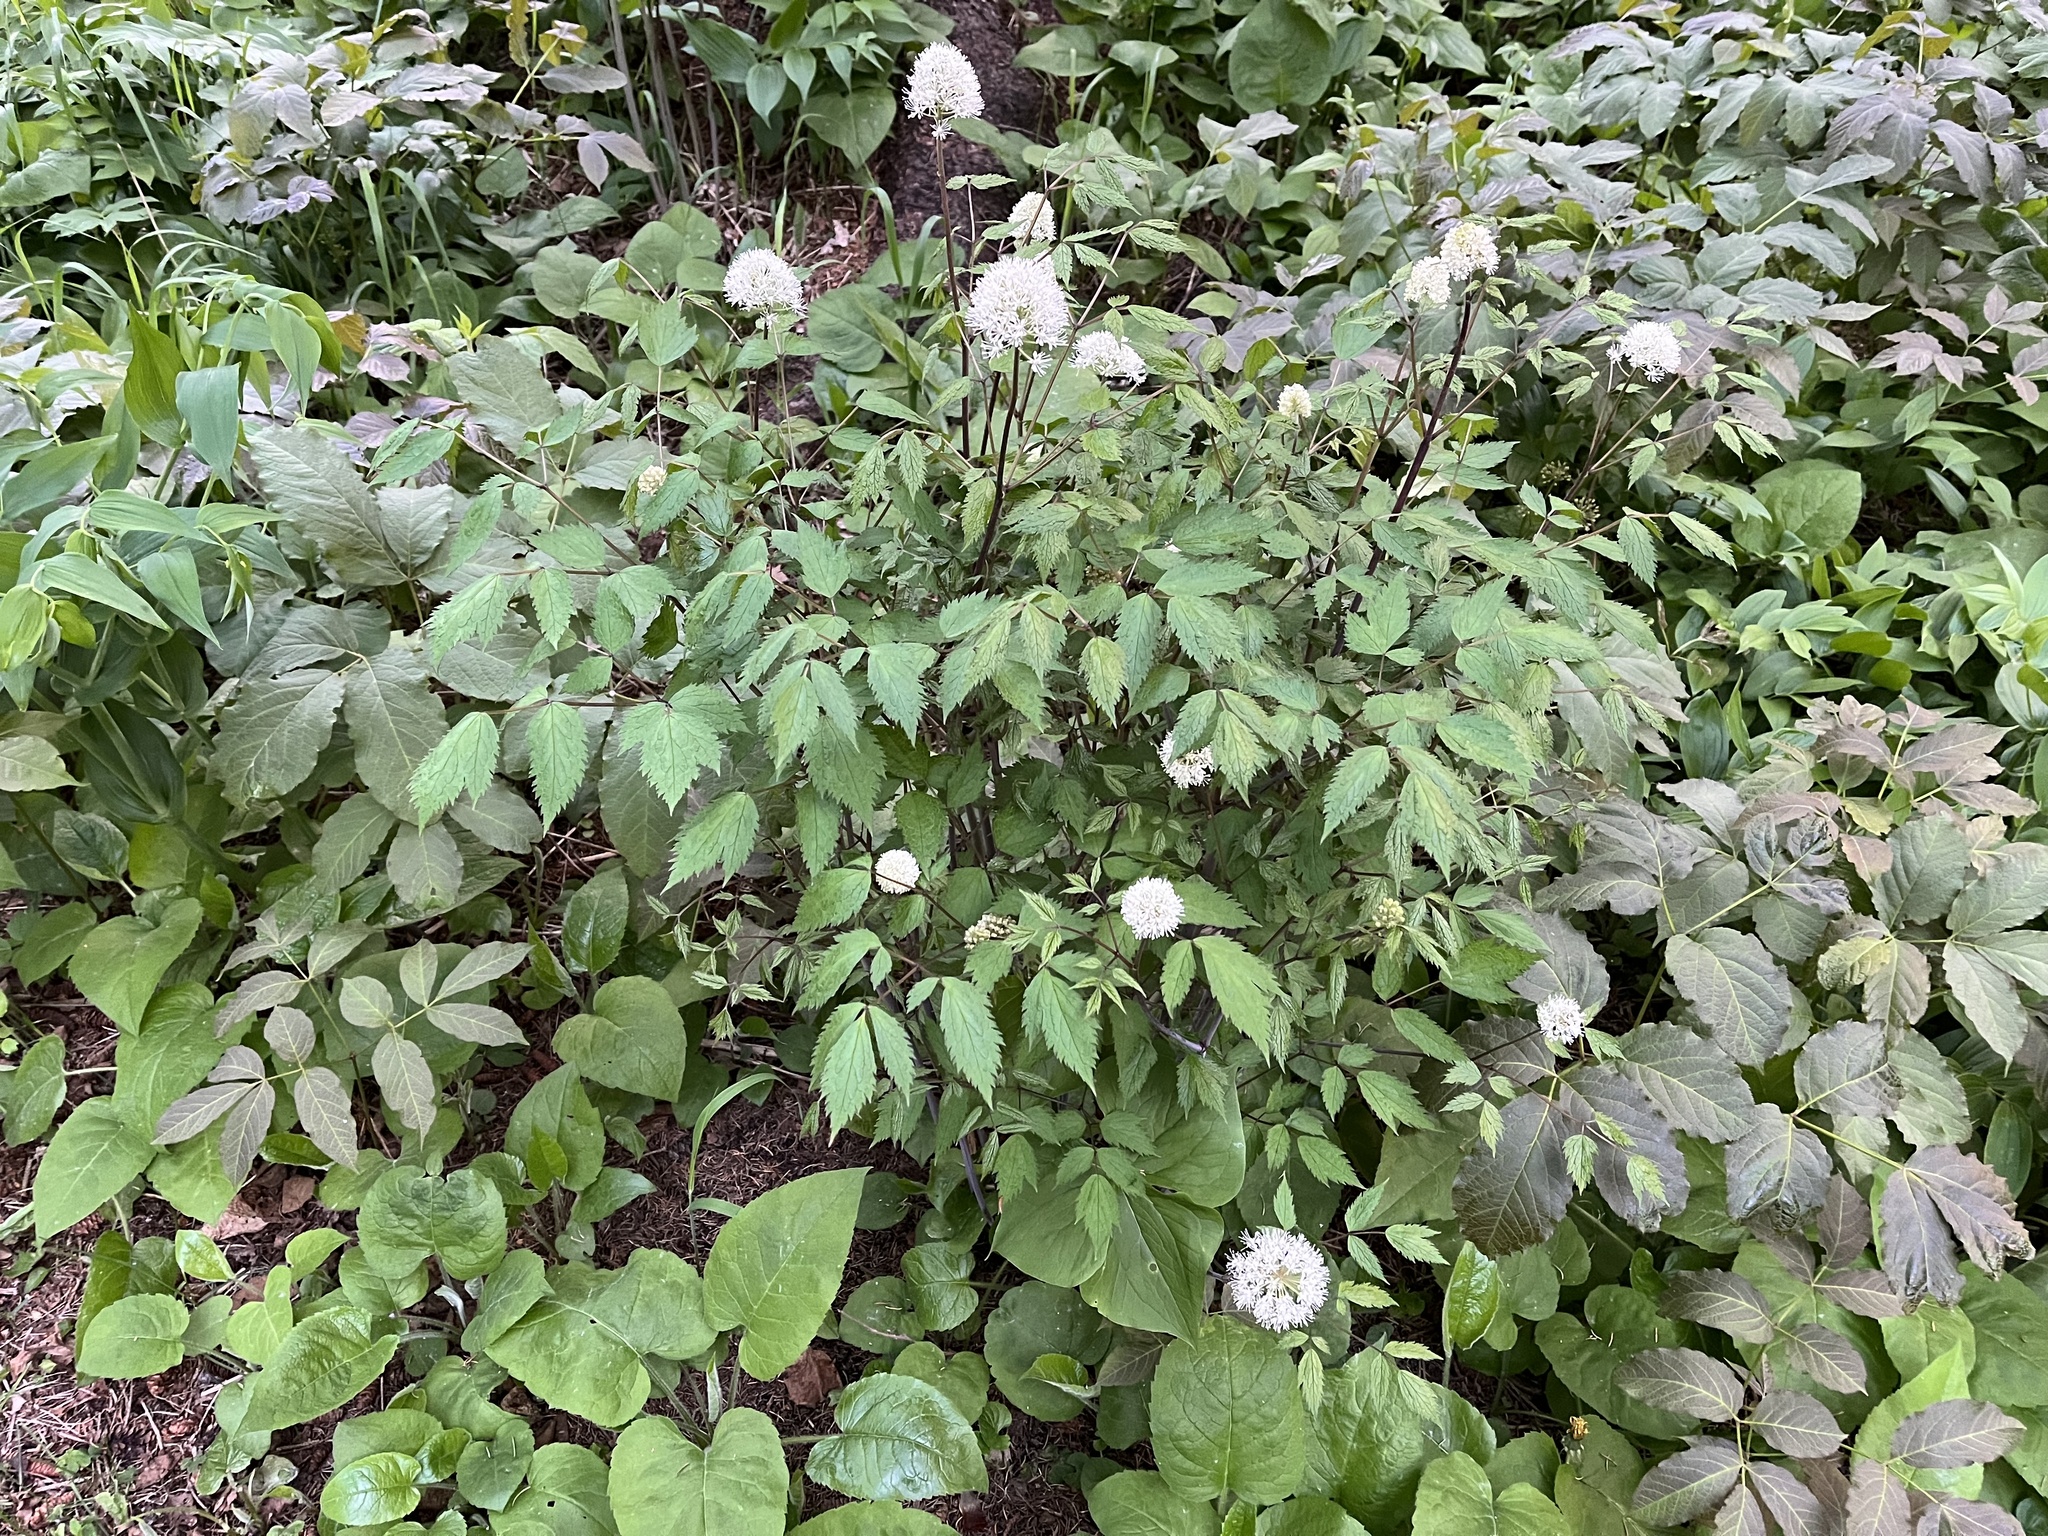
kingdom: Plantae
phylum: Tracheophyta
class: Magnoliopsida
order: Ranunculales
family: Ranunculaceae
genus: Actaea
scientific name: Actaea rubra
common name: Red baneberry
